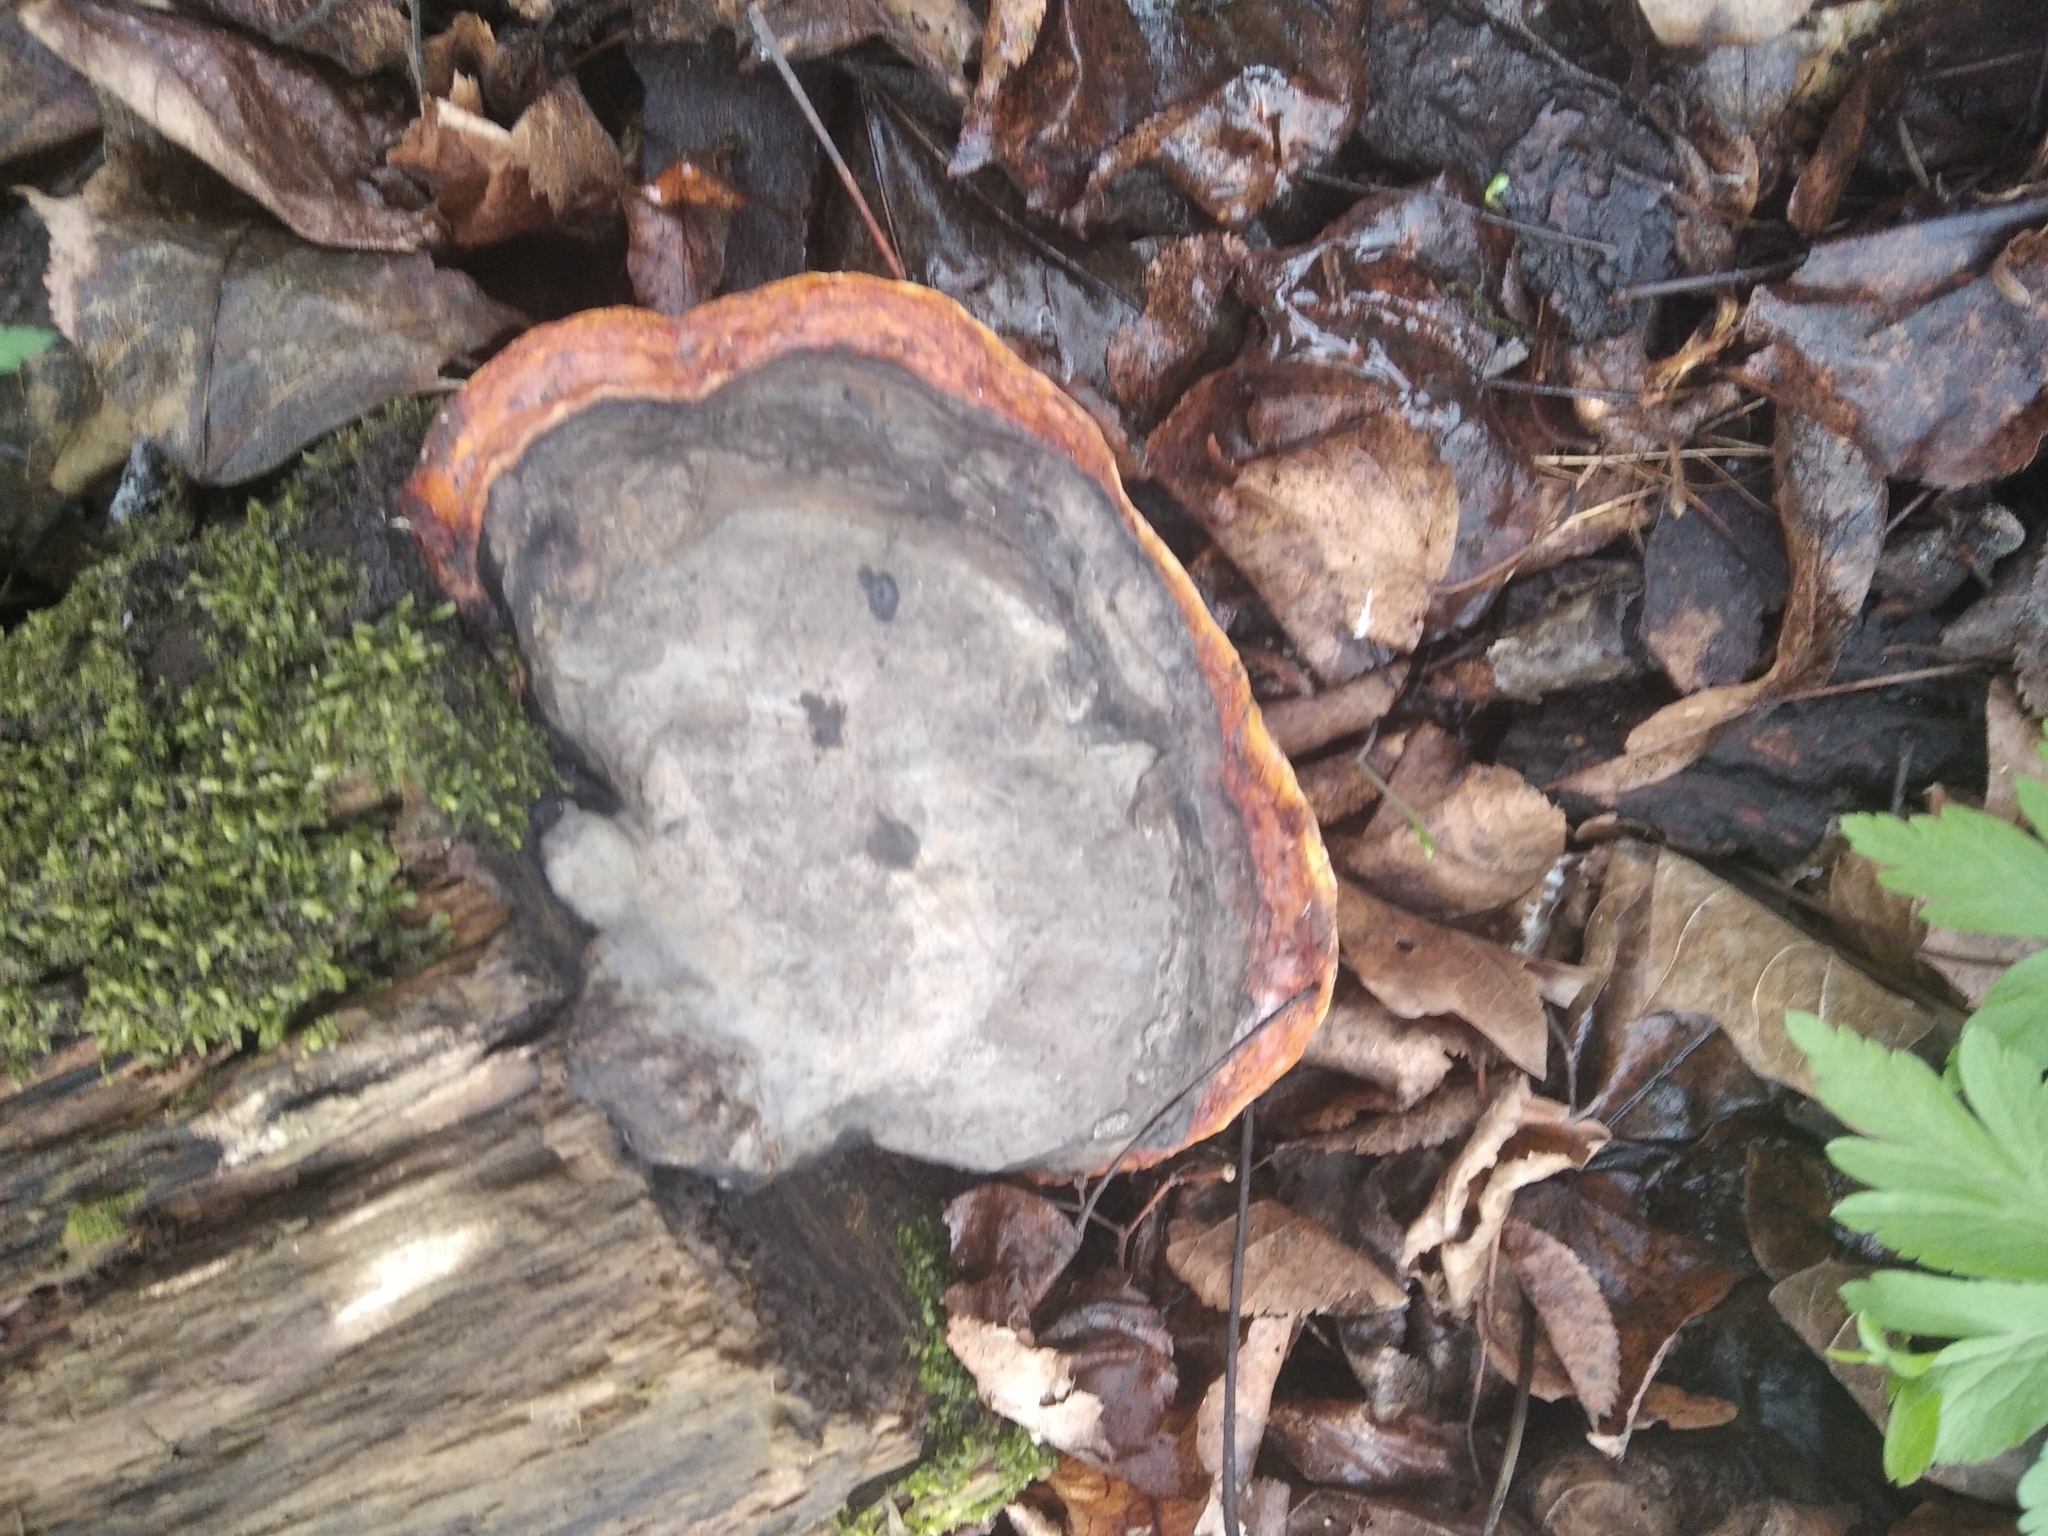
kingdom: Fungi
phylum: Basidiomycota
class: Agaricomycetes
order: Polyporales
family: Fomitopsidaceae
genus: Fomitopsis
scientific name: Fomitopsis pinicola
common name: Red-belted bracket
